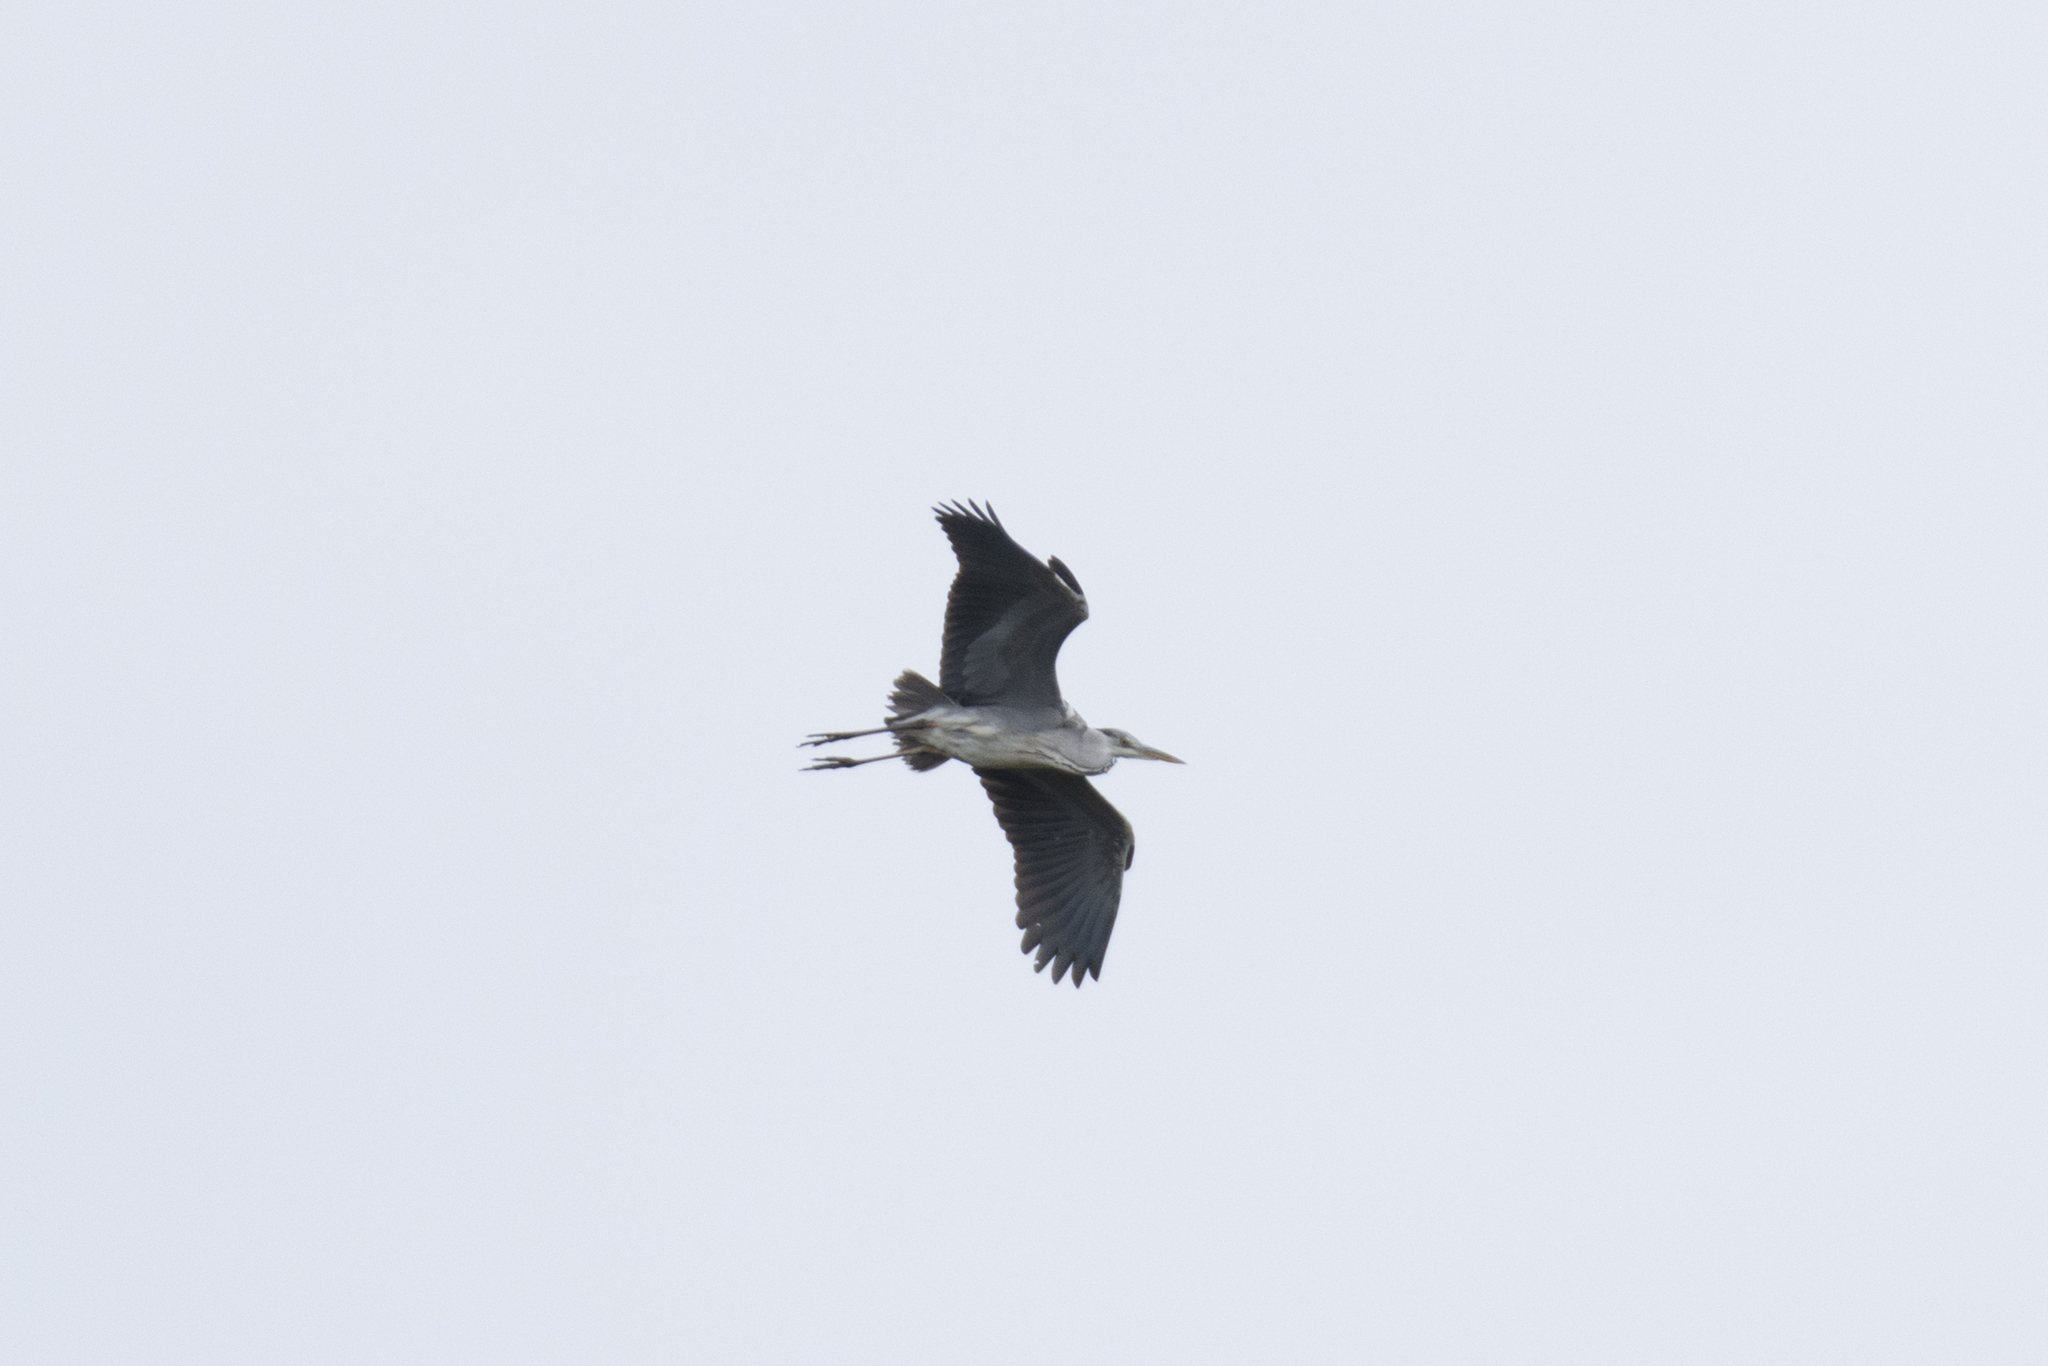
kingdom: Animalia
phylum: Chordata
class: Aves
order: Pelecaniformes
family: Ardeidae
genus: Ardea
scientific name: Ardea cinerea
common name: Grey heron
